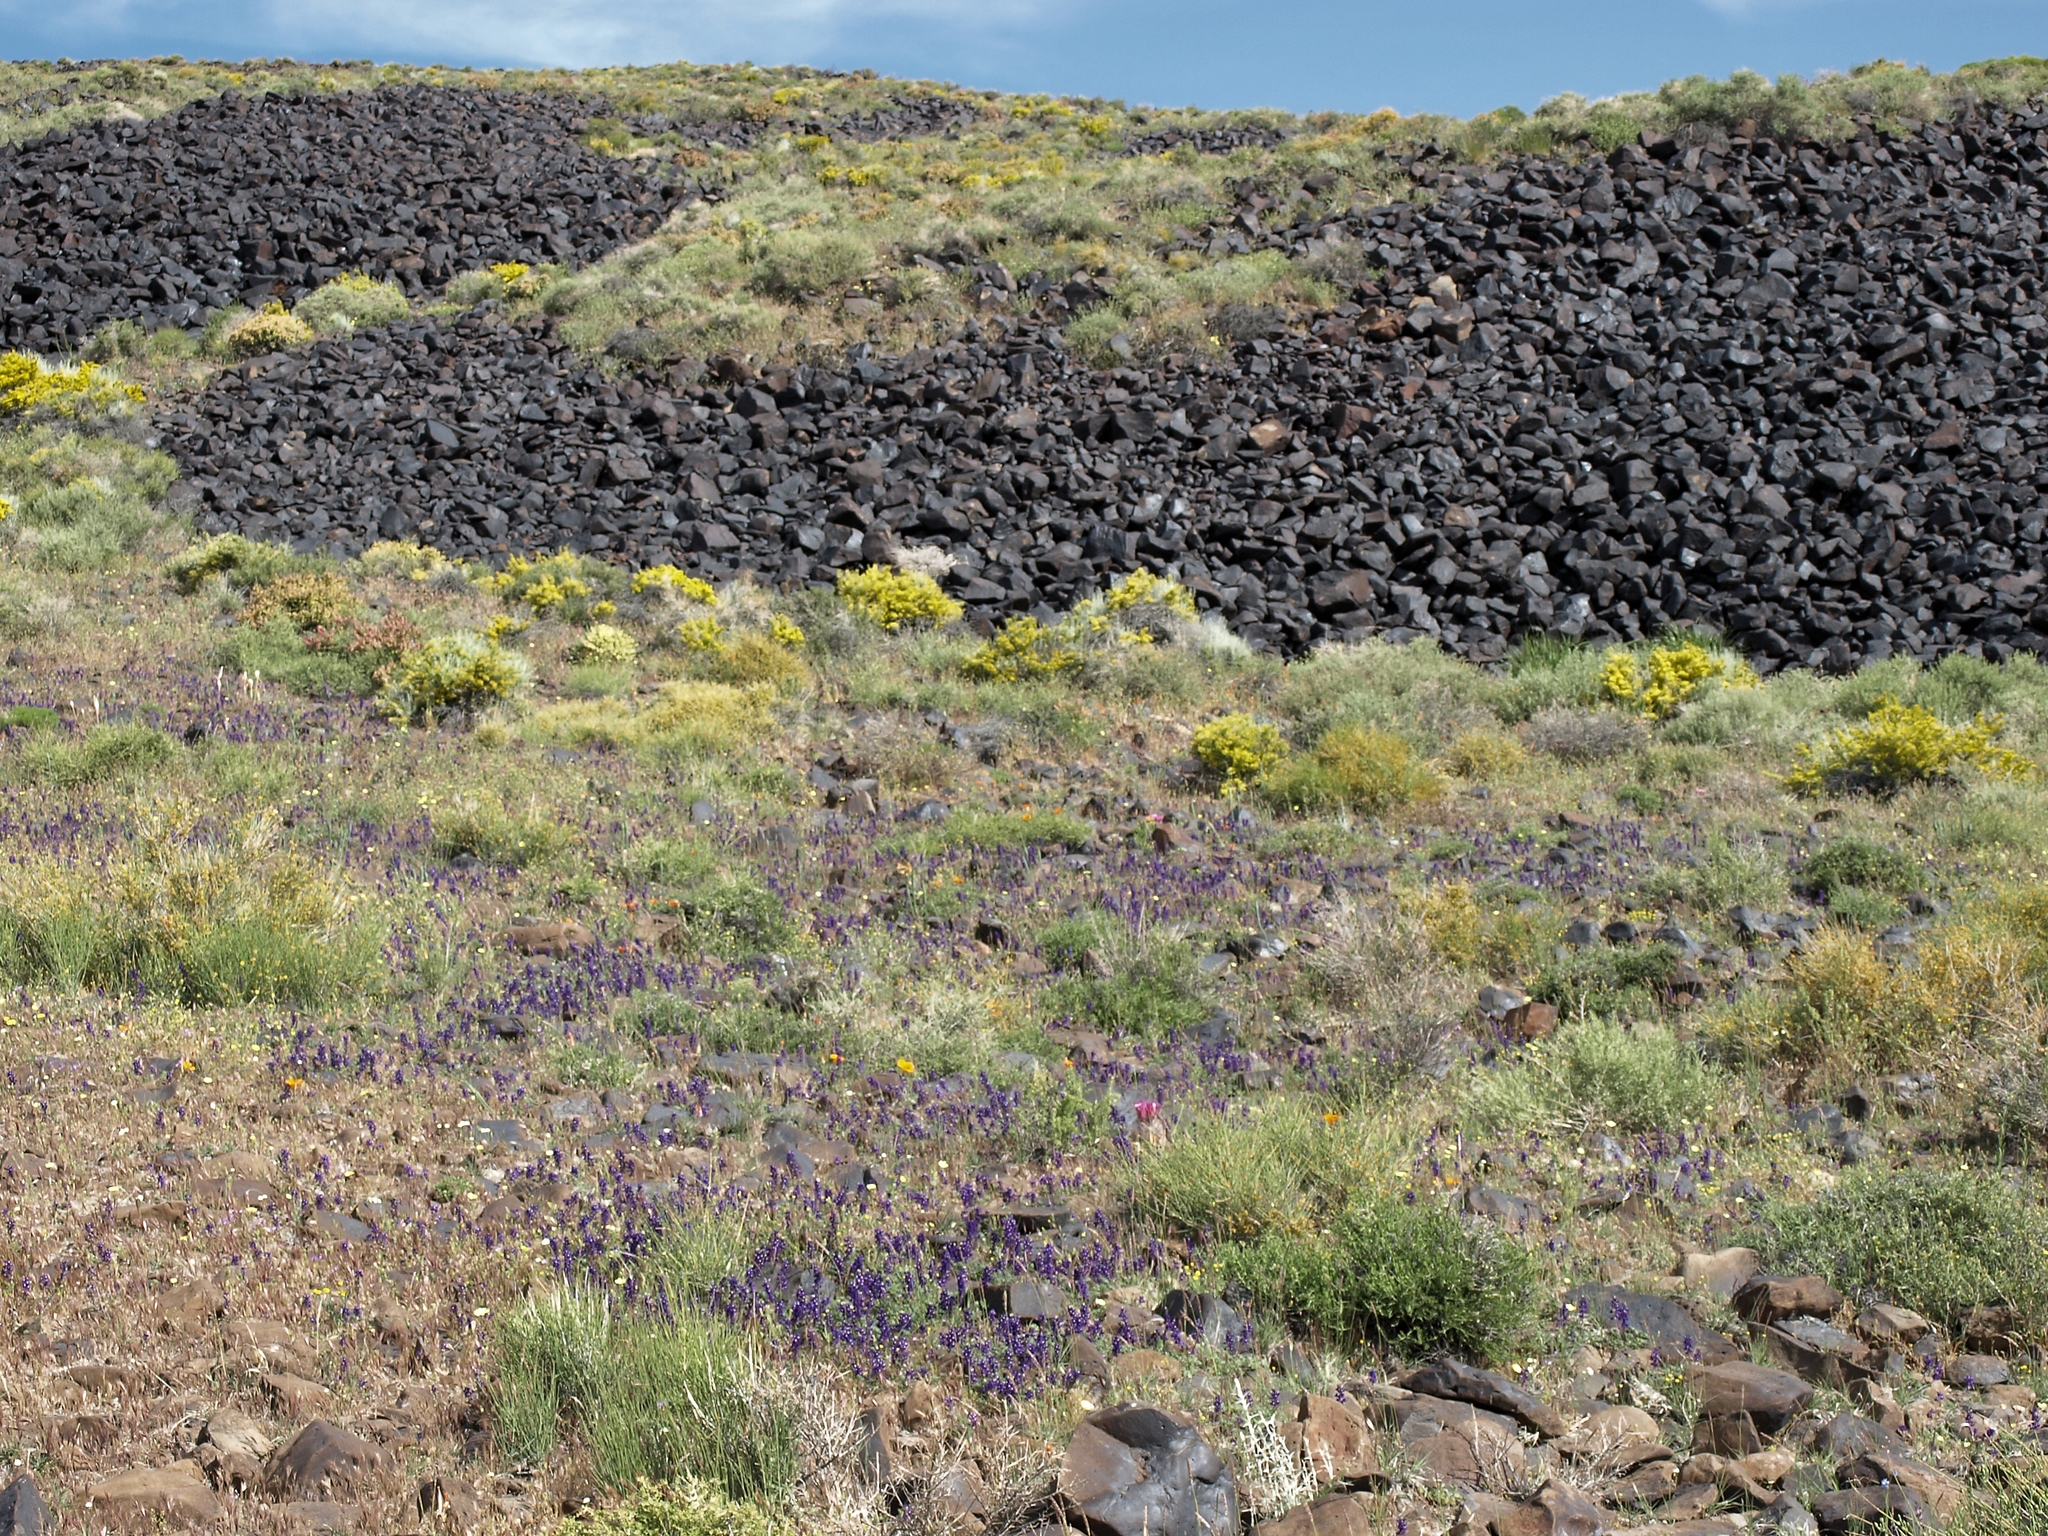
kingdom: Plantae
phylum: Tracheophyta
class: Magnoliopsida
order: Fabales
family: Fabaceae
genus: Lupinus
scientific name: Lupinus flavoculatus
